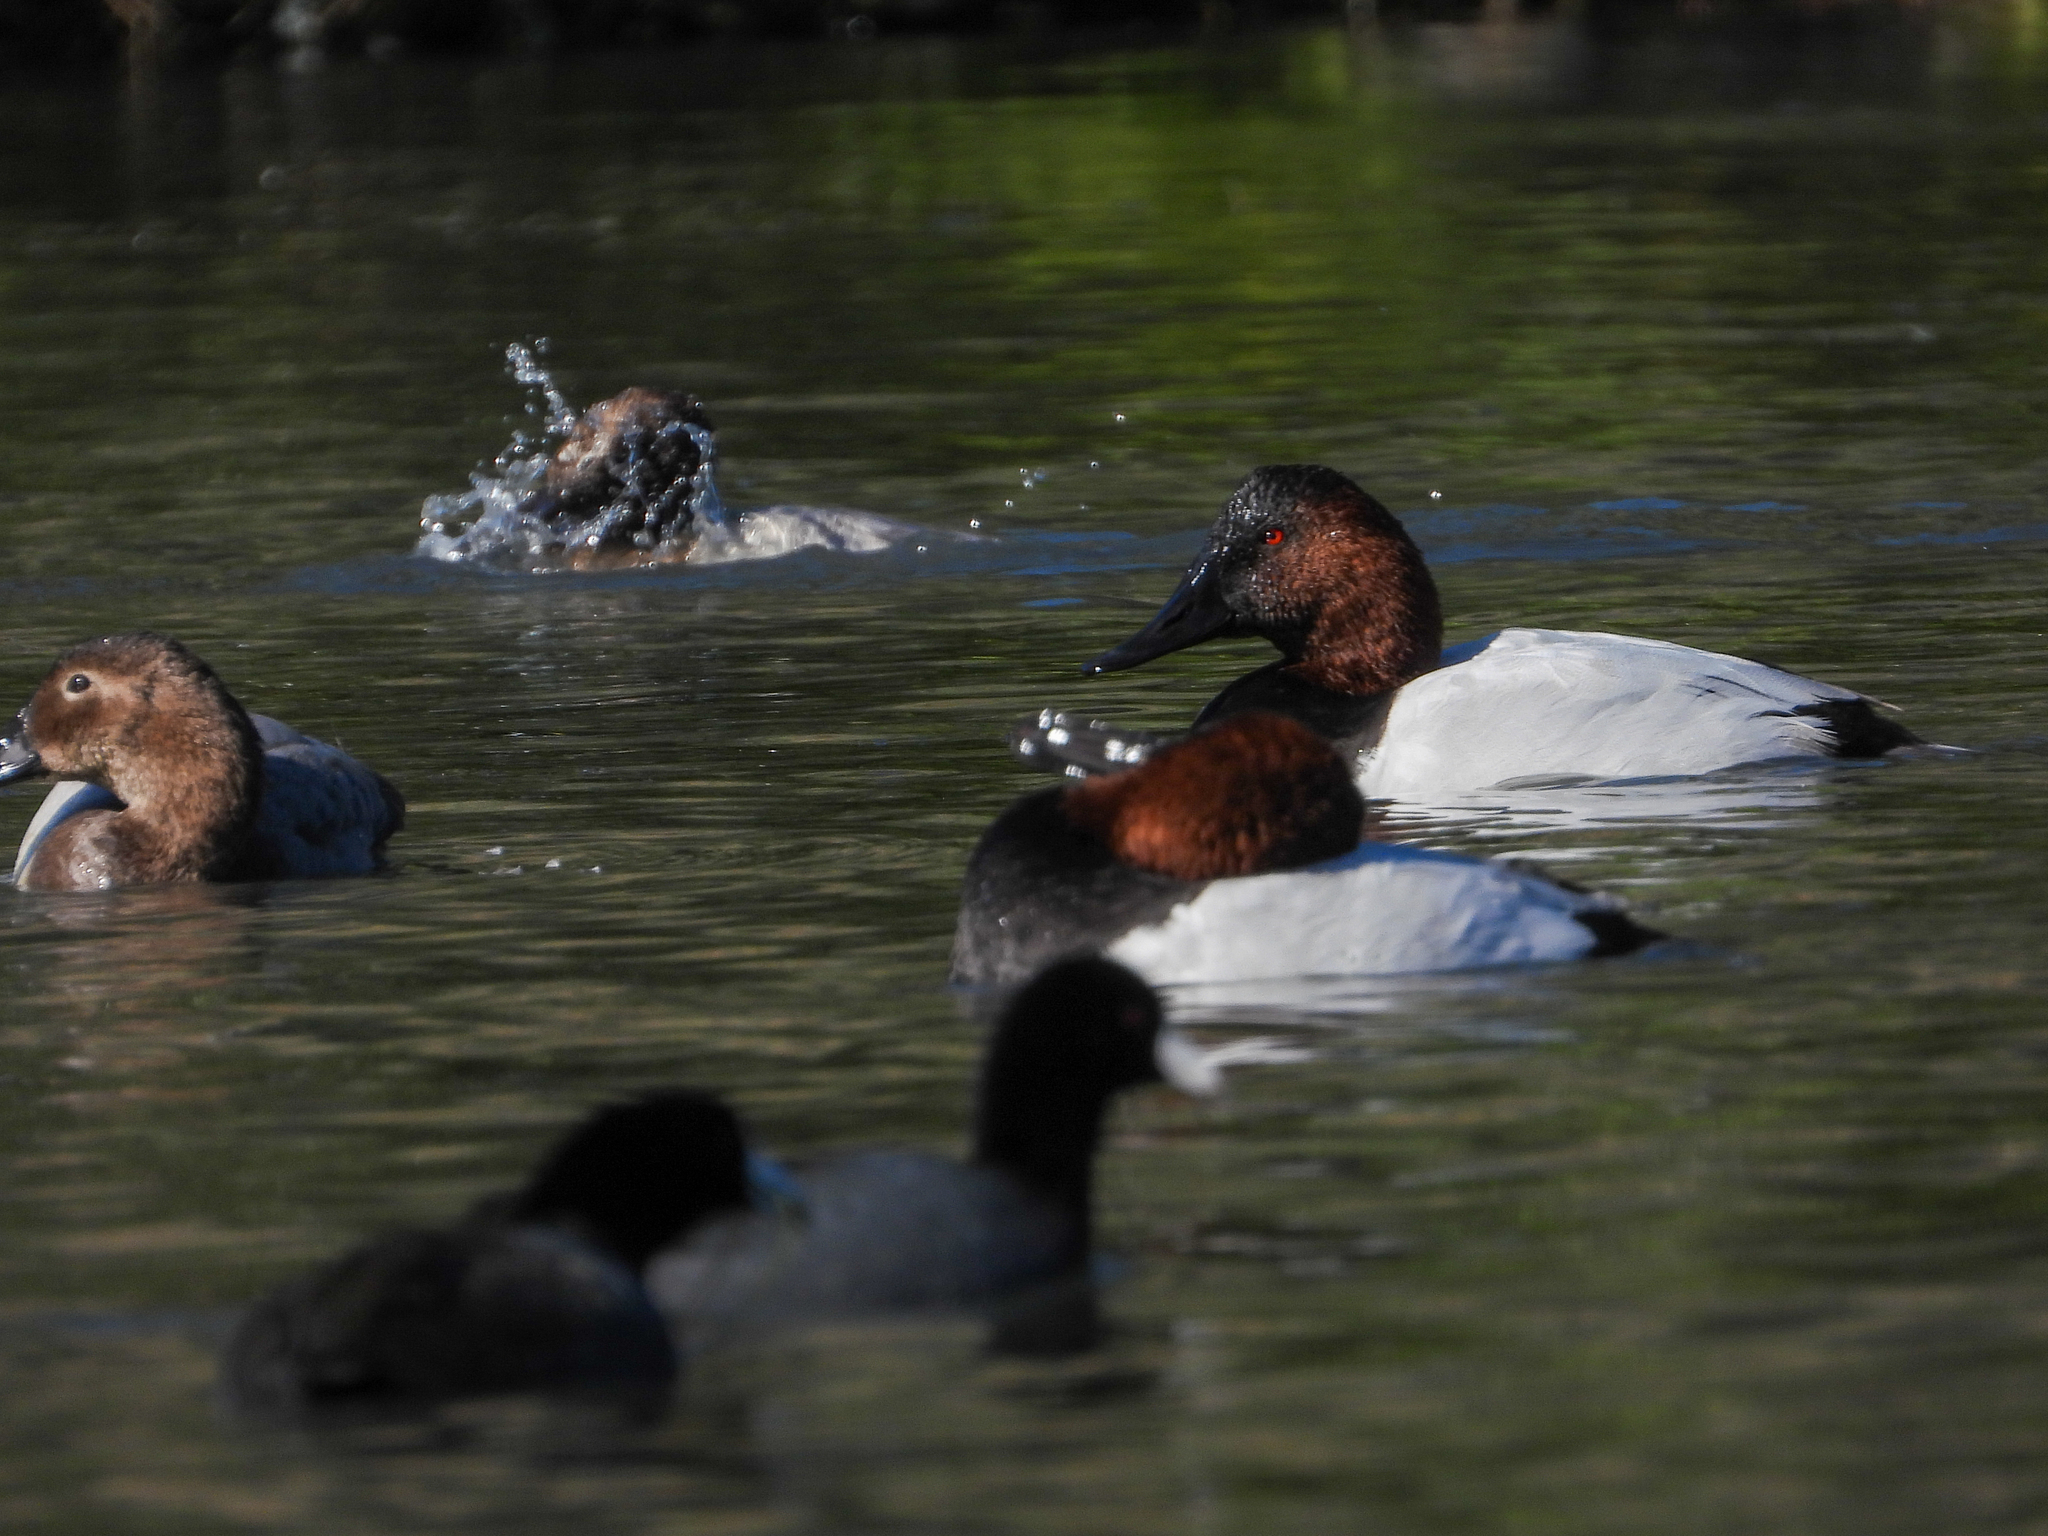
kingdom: Animalia
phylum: Chordata
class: Aves
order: Anseriformes
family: Anatidae
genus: Aythya
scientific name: Aythya valisineria
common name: Canvasback
